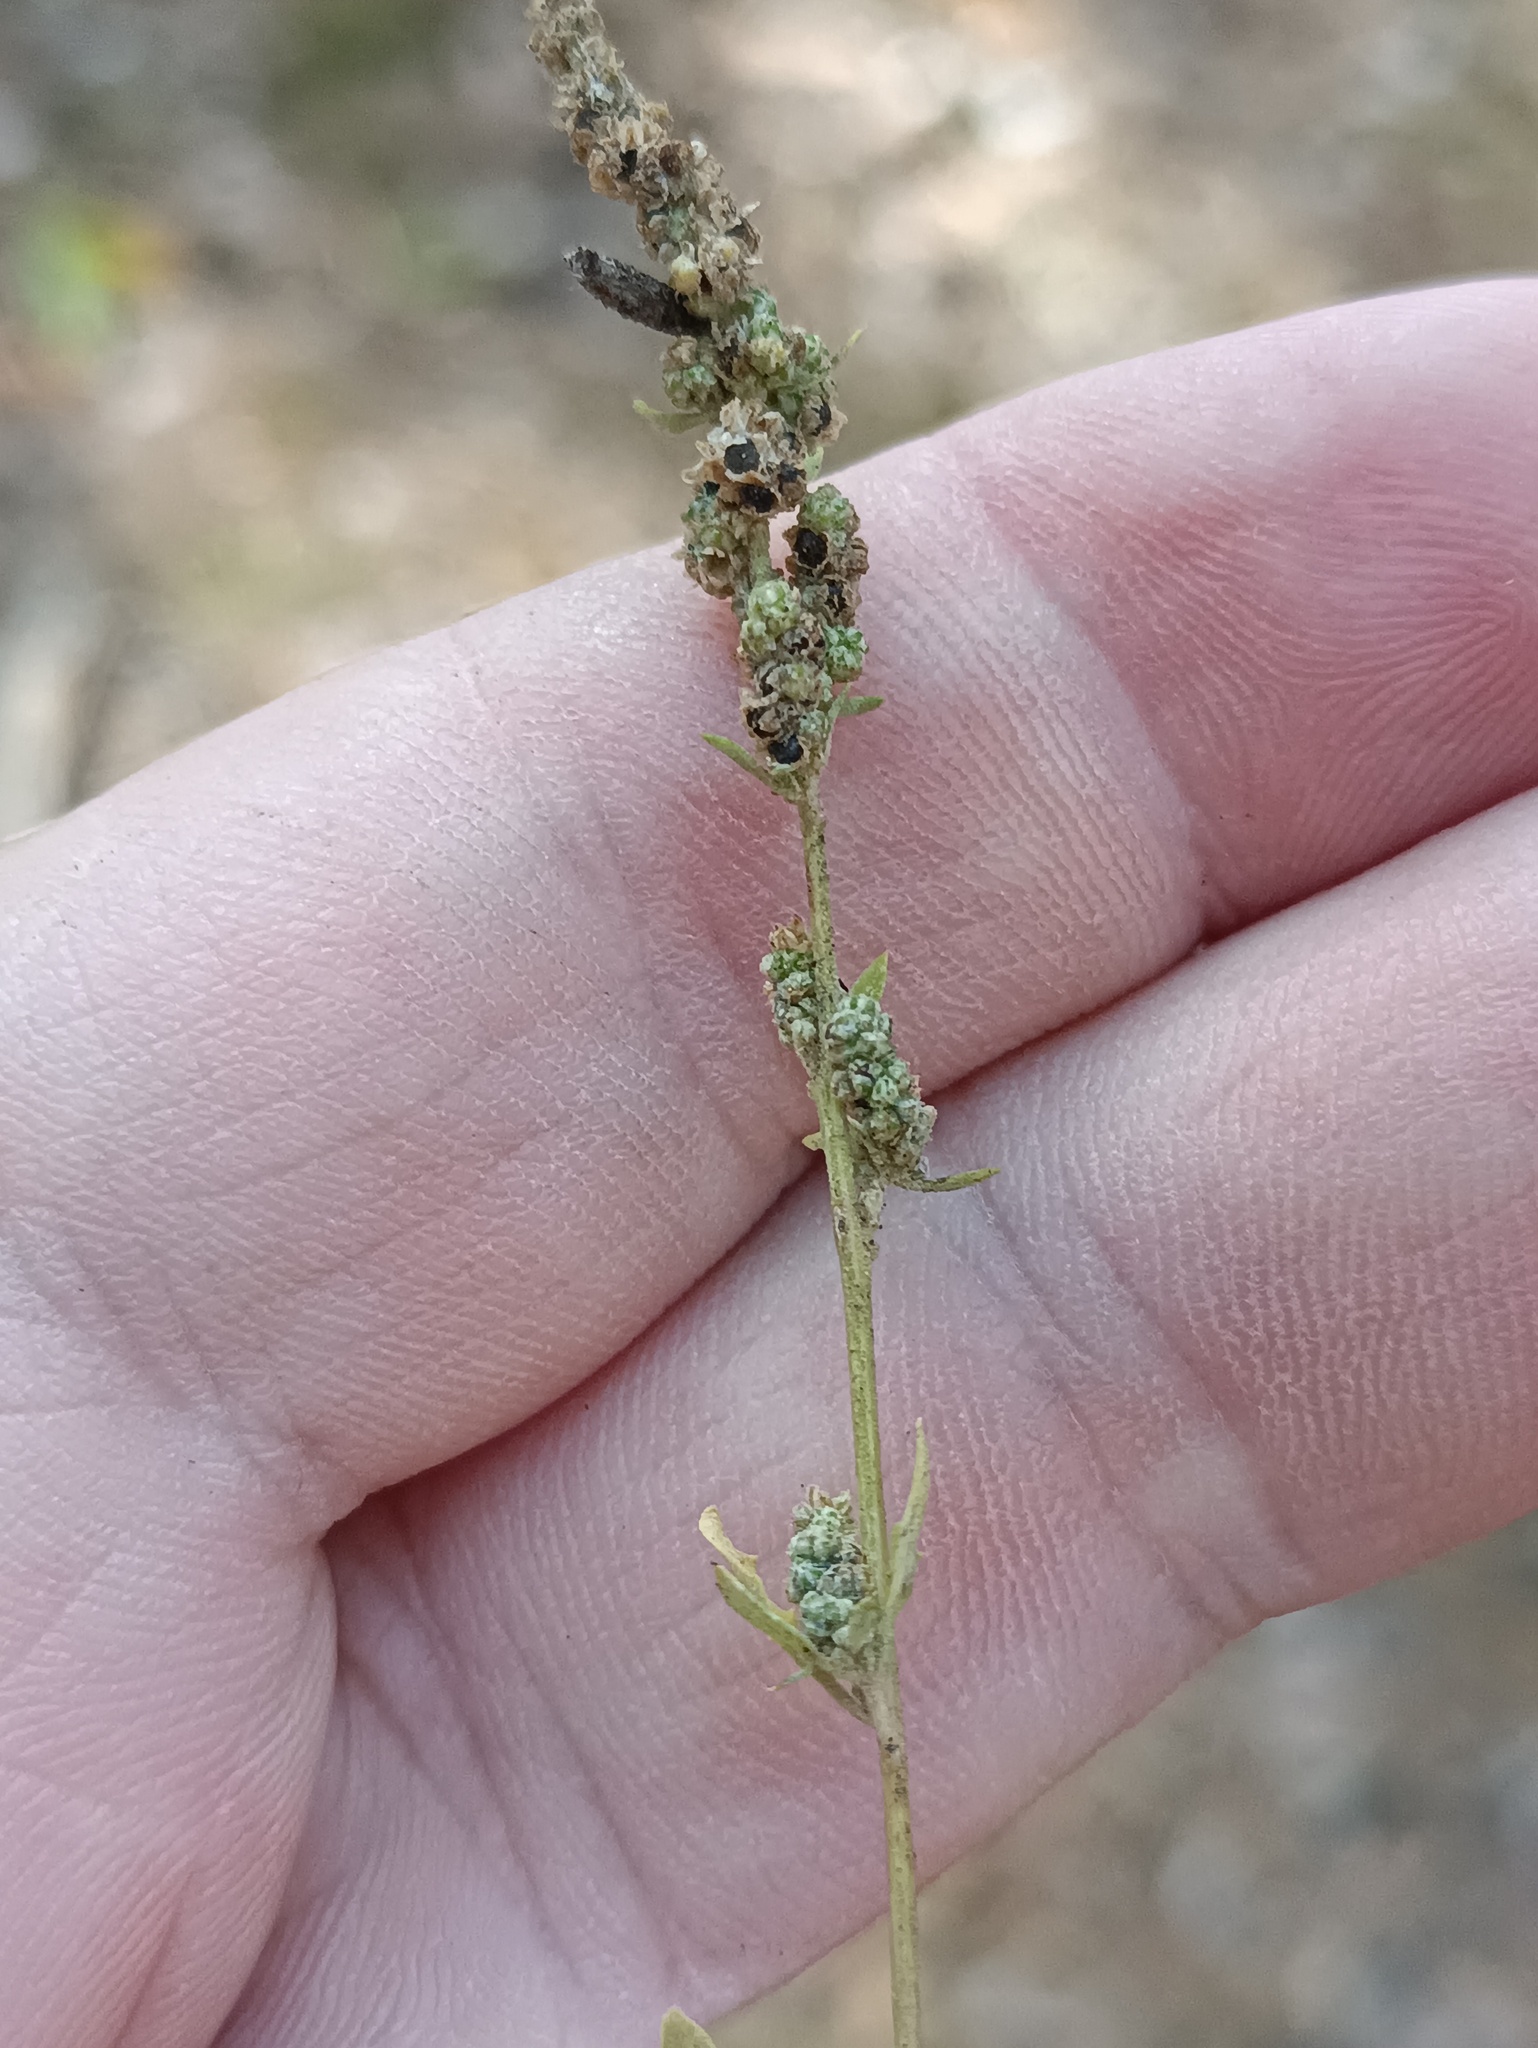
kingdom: Plantae
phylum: Tracheophyta
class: Magnoliopsida
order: Caryophyllales
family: Amaranthaceae
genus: Chenopodium
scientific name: Chenopodium album
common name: Fat-hen
